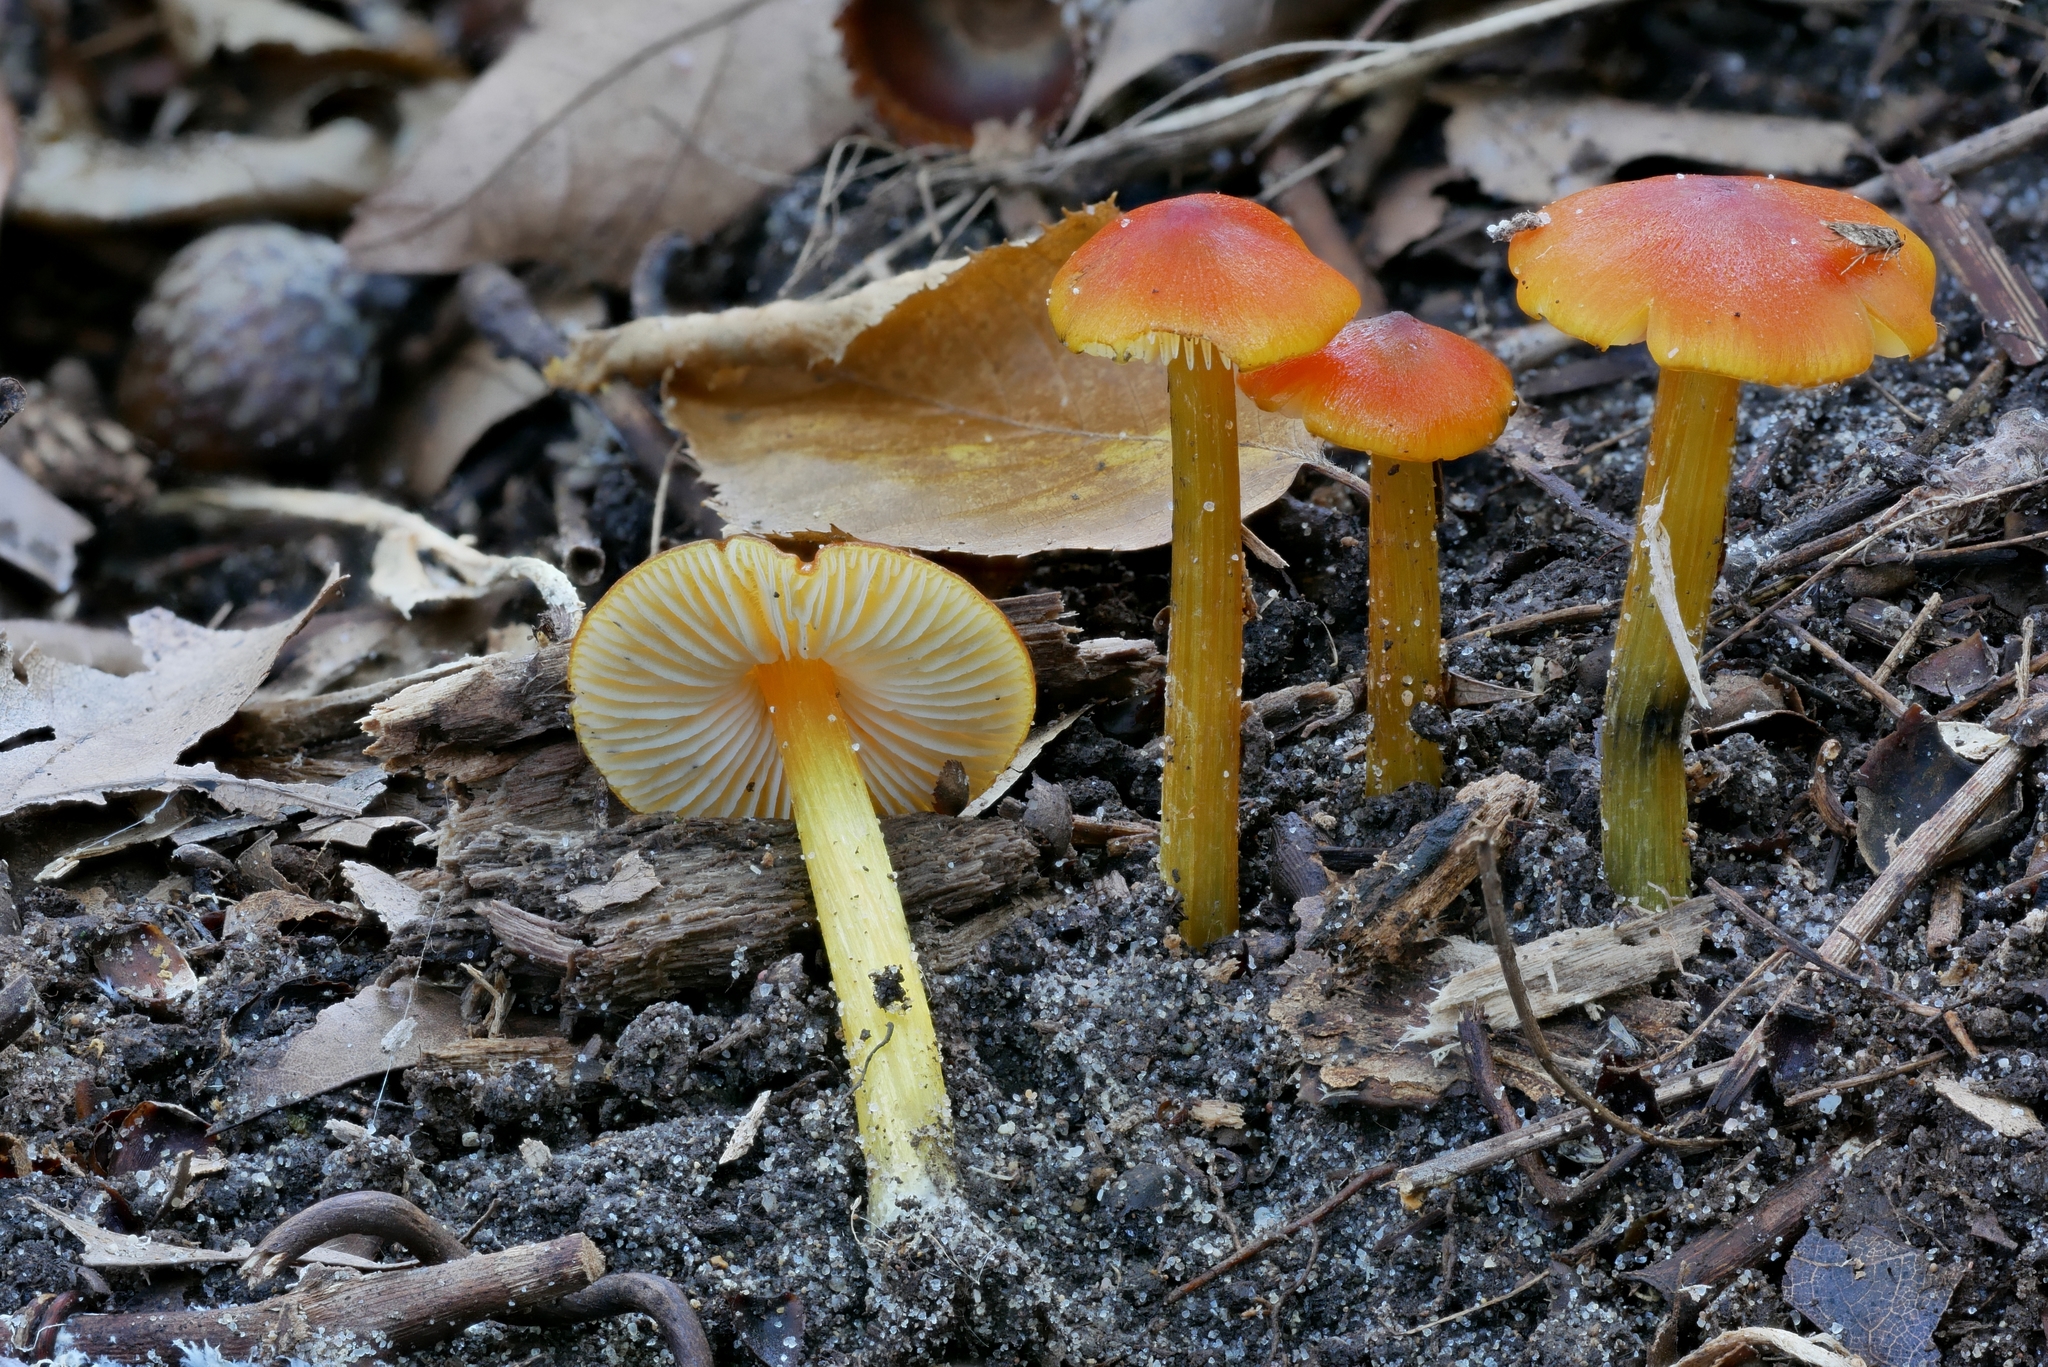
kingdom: Fungi
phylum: Basidiomycota
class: Agaricomycetes
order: Agaricales
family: Hygrophoraceae
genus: Hygrocybe
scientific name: Hygrocybe conica
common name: Blackening wax-cap
